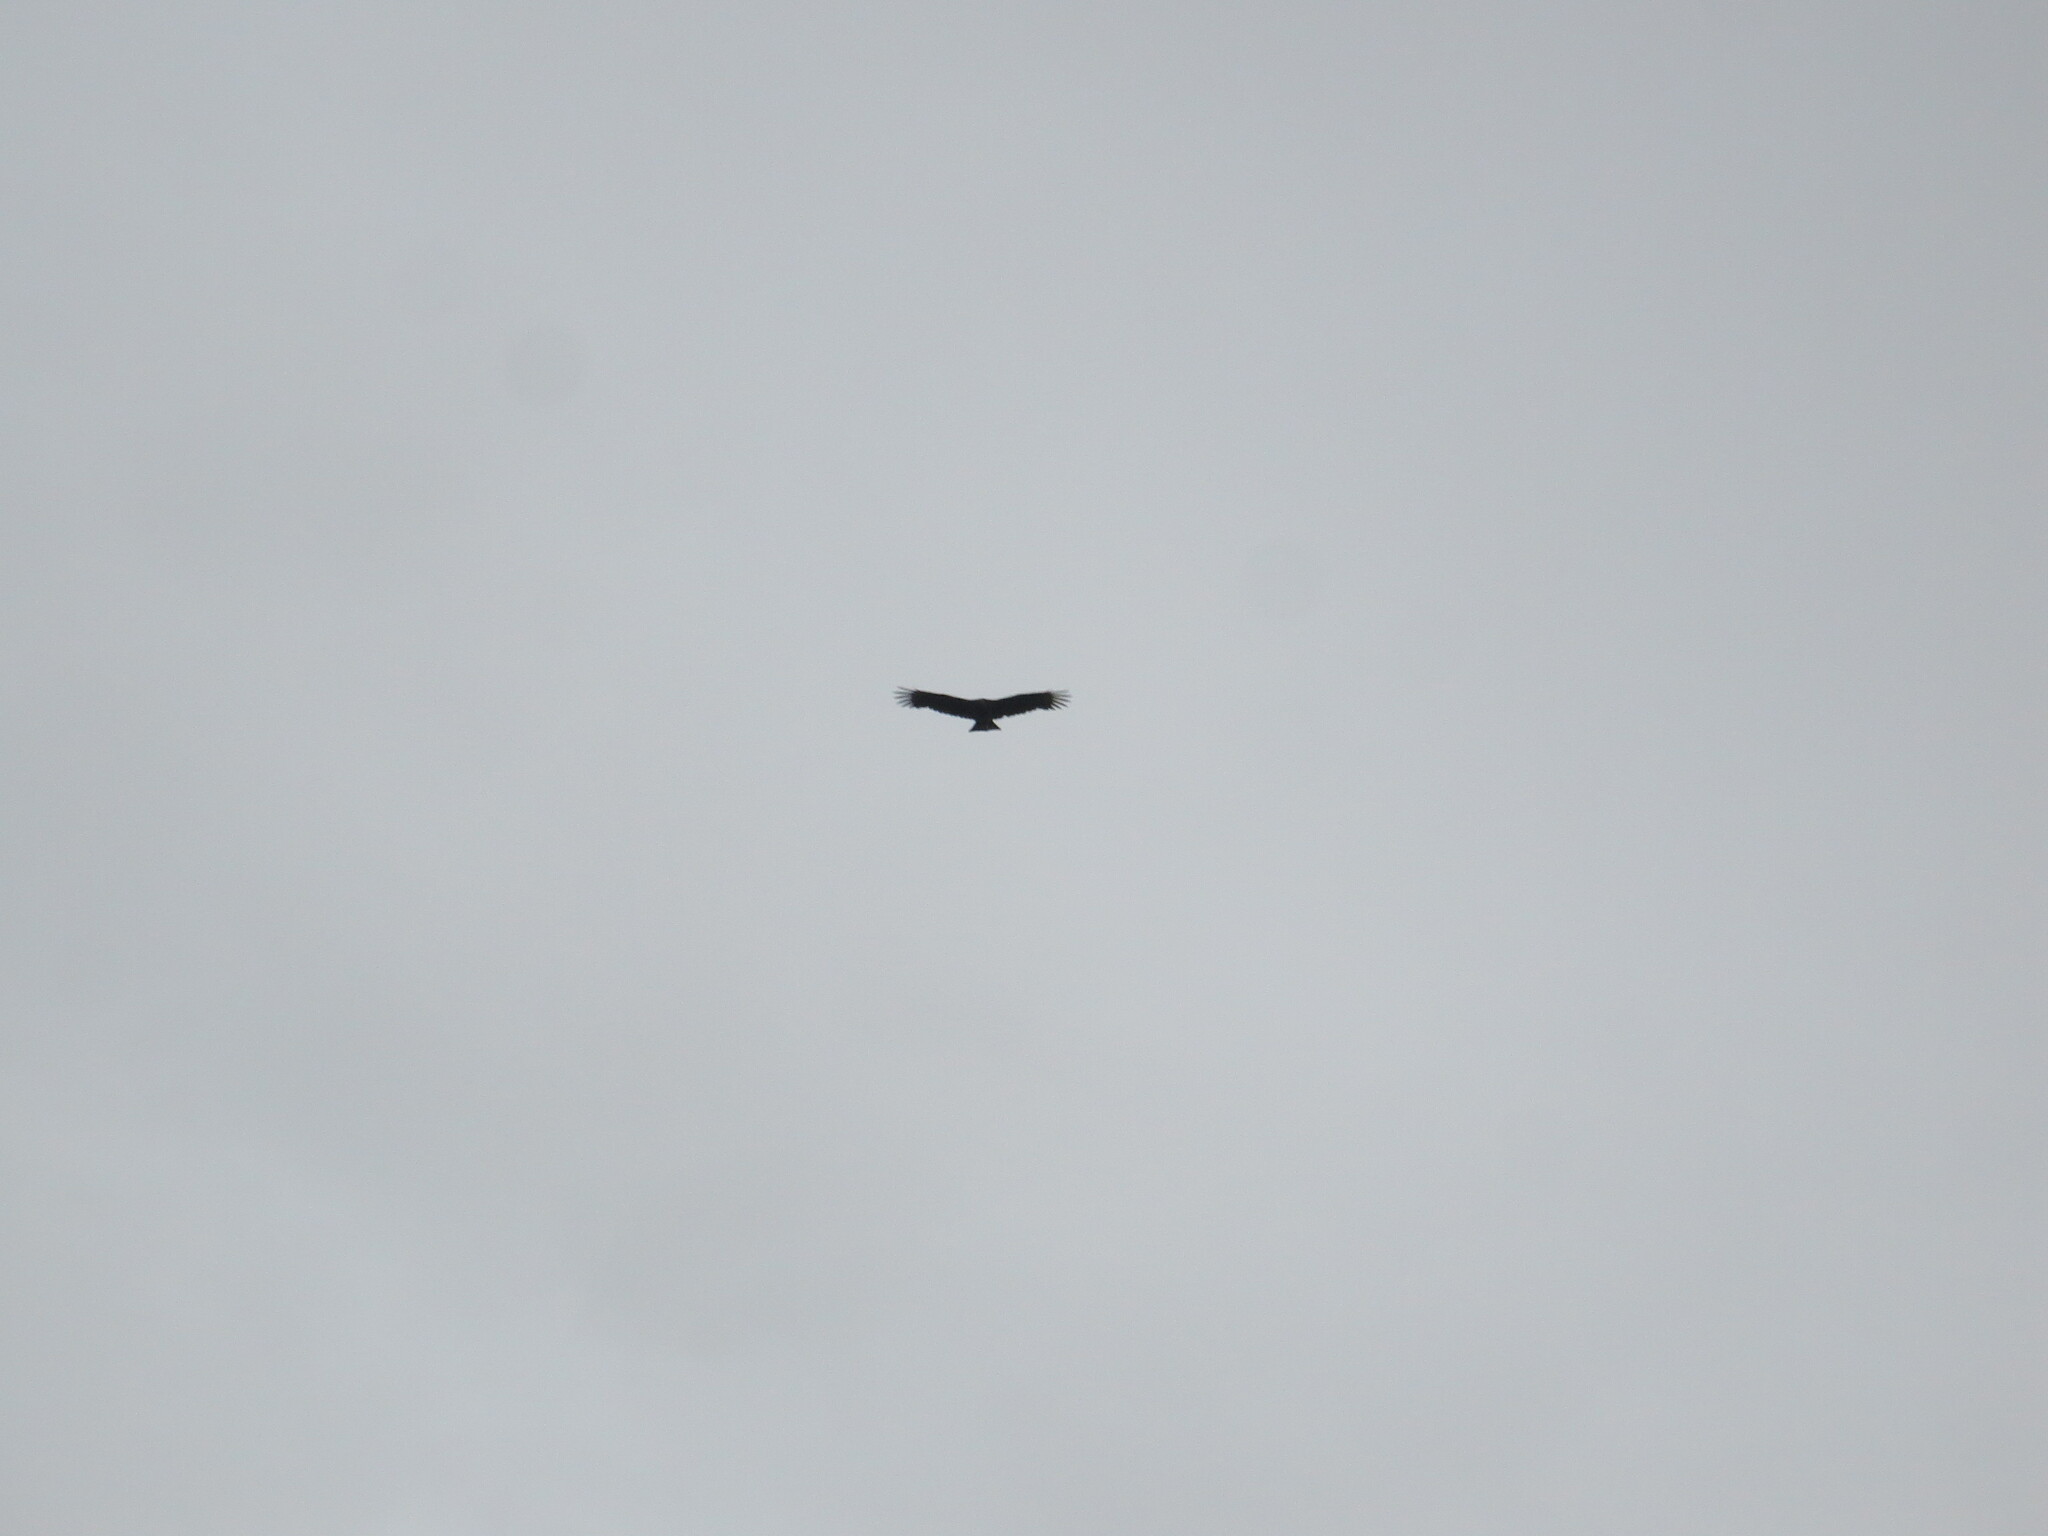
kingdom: Animalia
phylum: Chordata
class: Aves
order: Accipitriformes
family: Cathartidae
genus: Coragyps
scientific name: Coragyps atratus
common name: Black vulture
